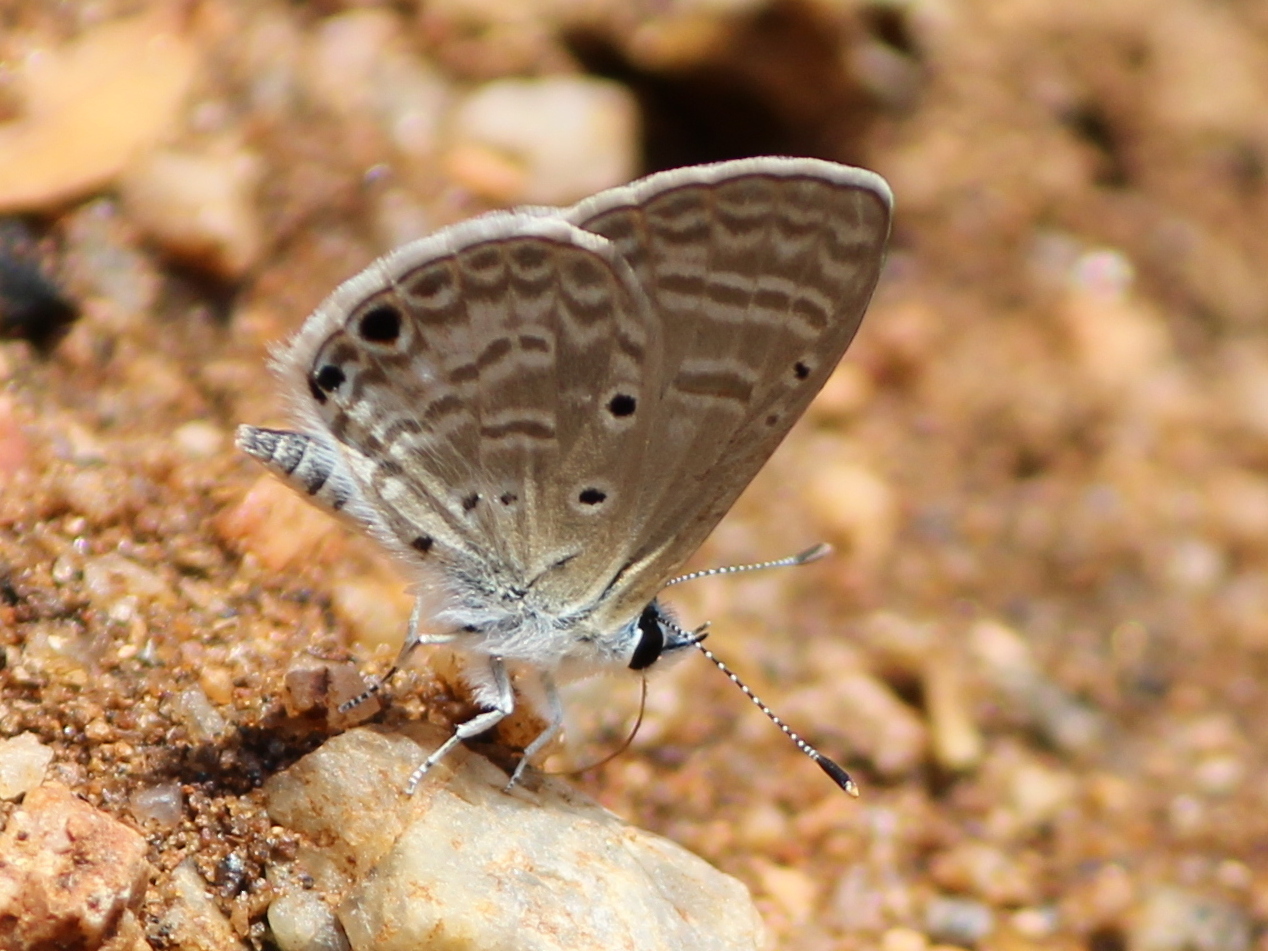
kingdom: Animalia
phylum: Arthropoda
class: Insecta
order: Lepidoptera
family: Lycaenidae
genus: Azanus
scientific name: Azanus ubaldus
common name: Desert babul blue
